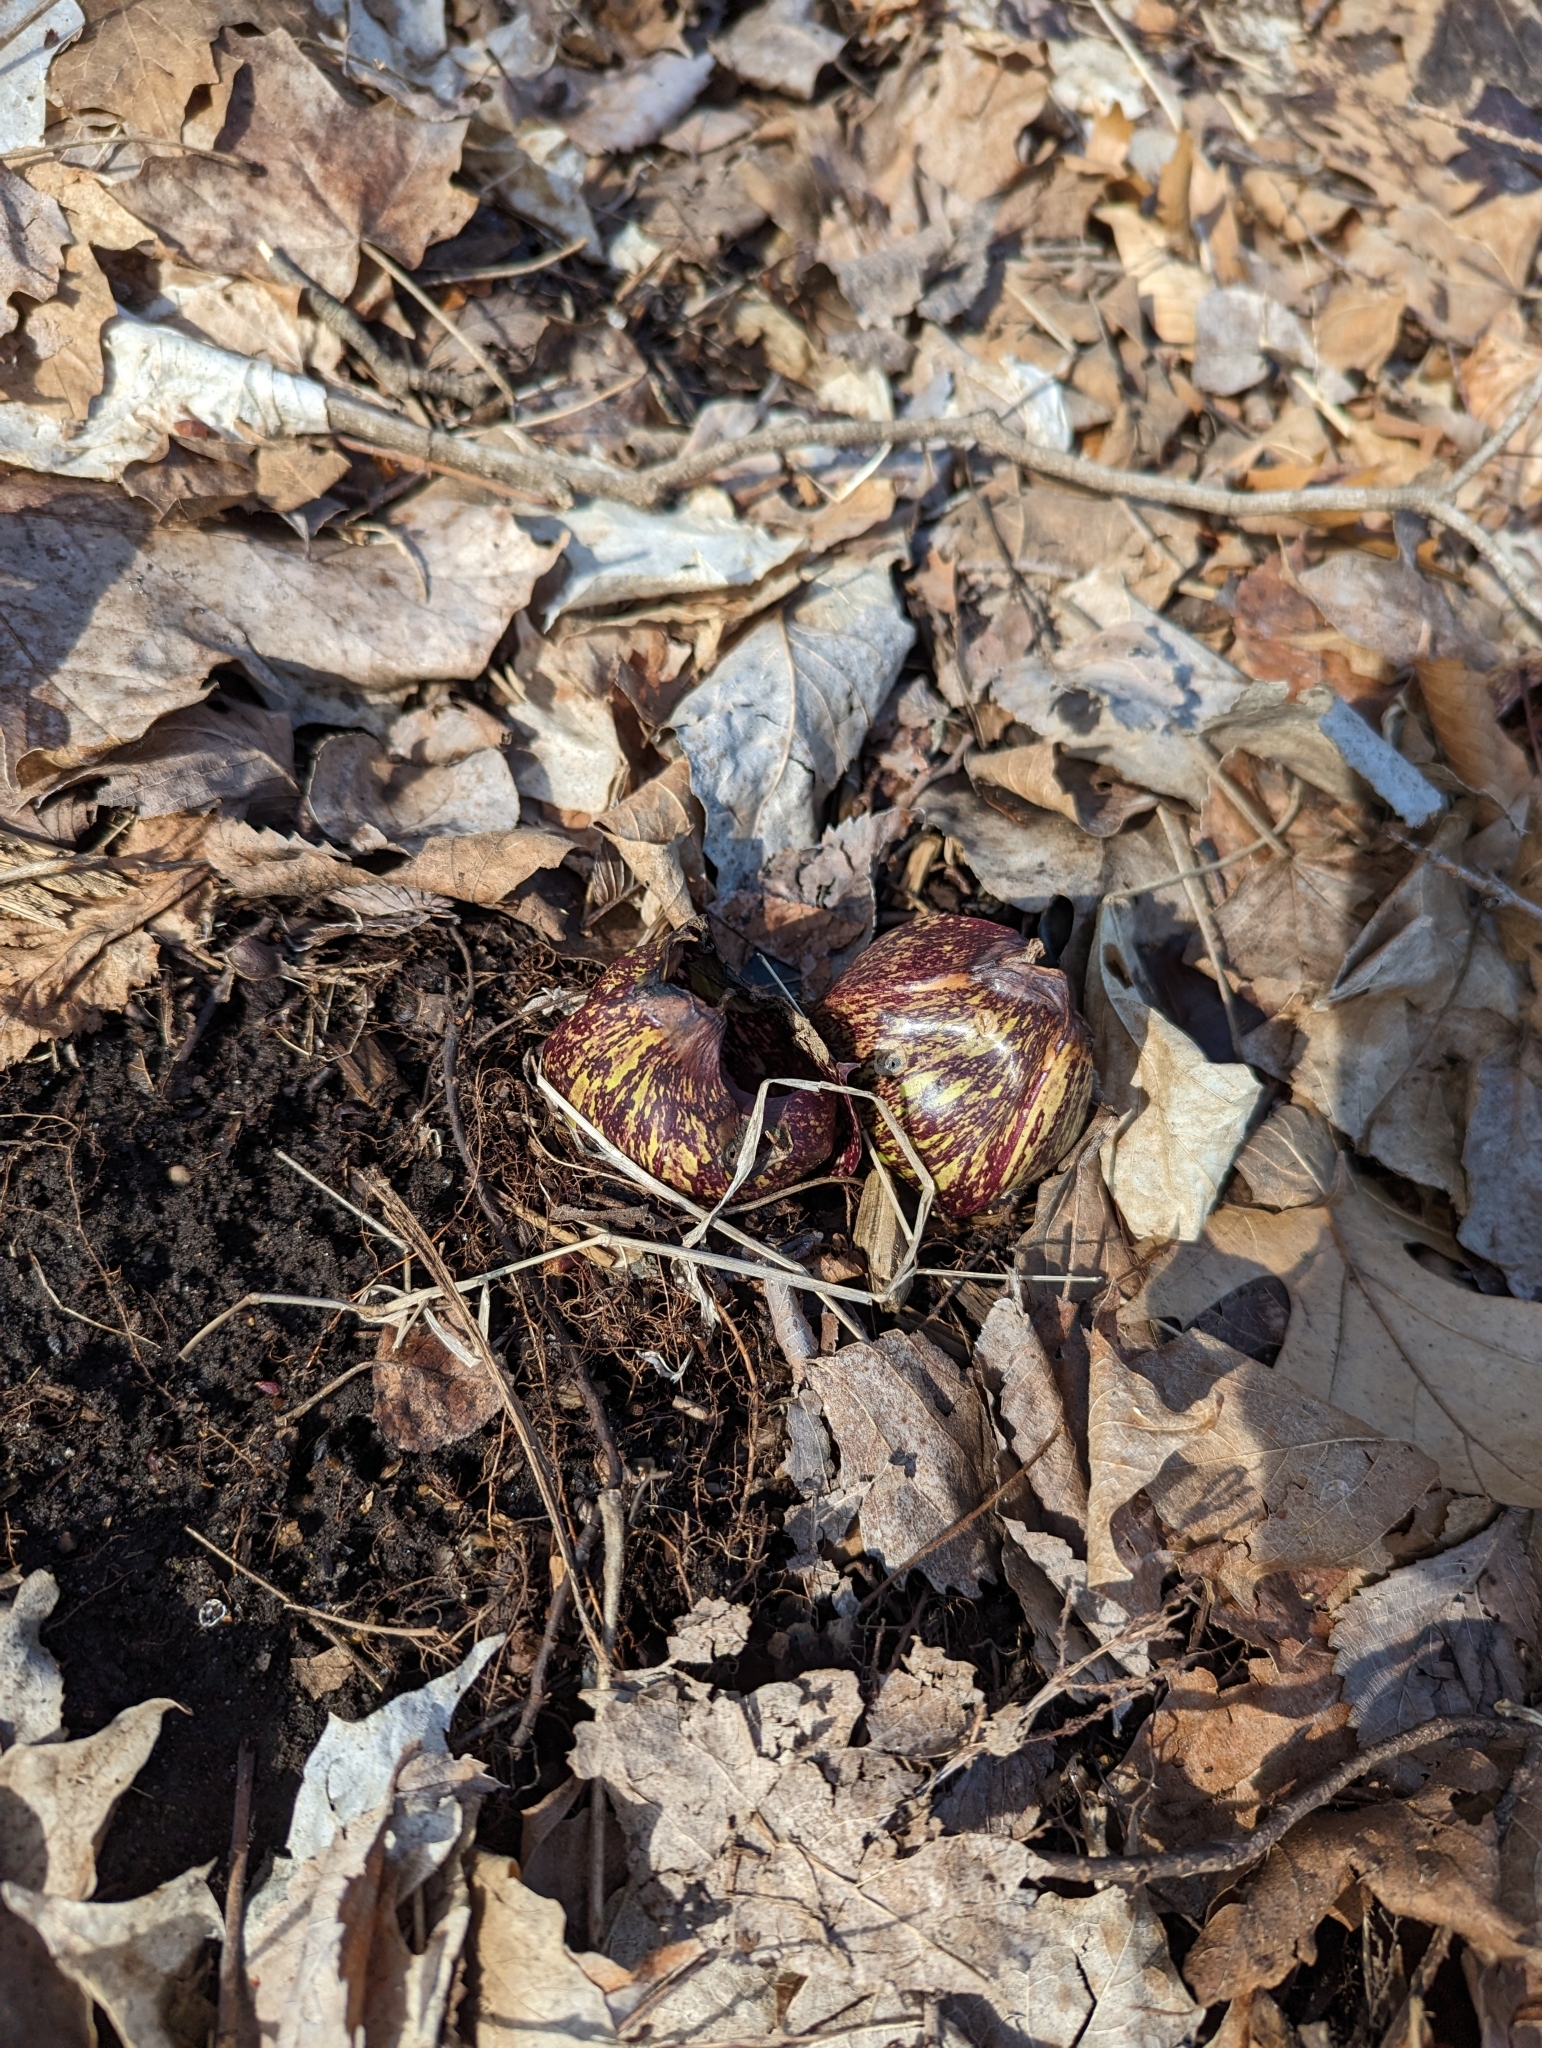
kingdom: Plantae
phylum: Tracheophyta
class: Liliopsida
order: Alismatales
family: Araceae
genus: Symplocarpus
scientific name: Symplocarpus foetidus
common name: Eastern skunk cabbage
